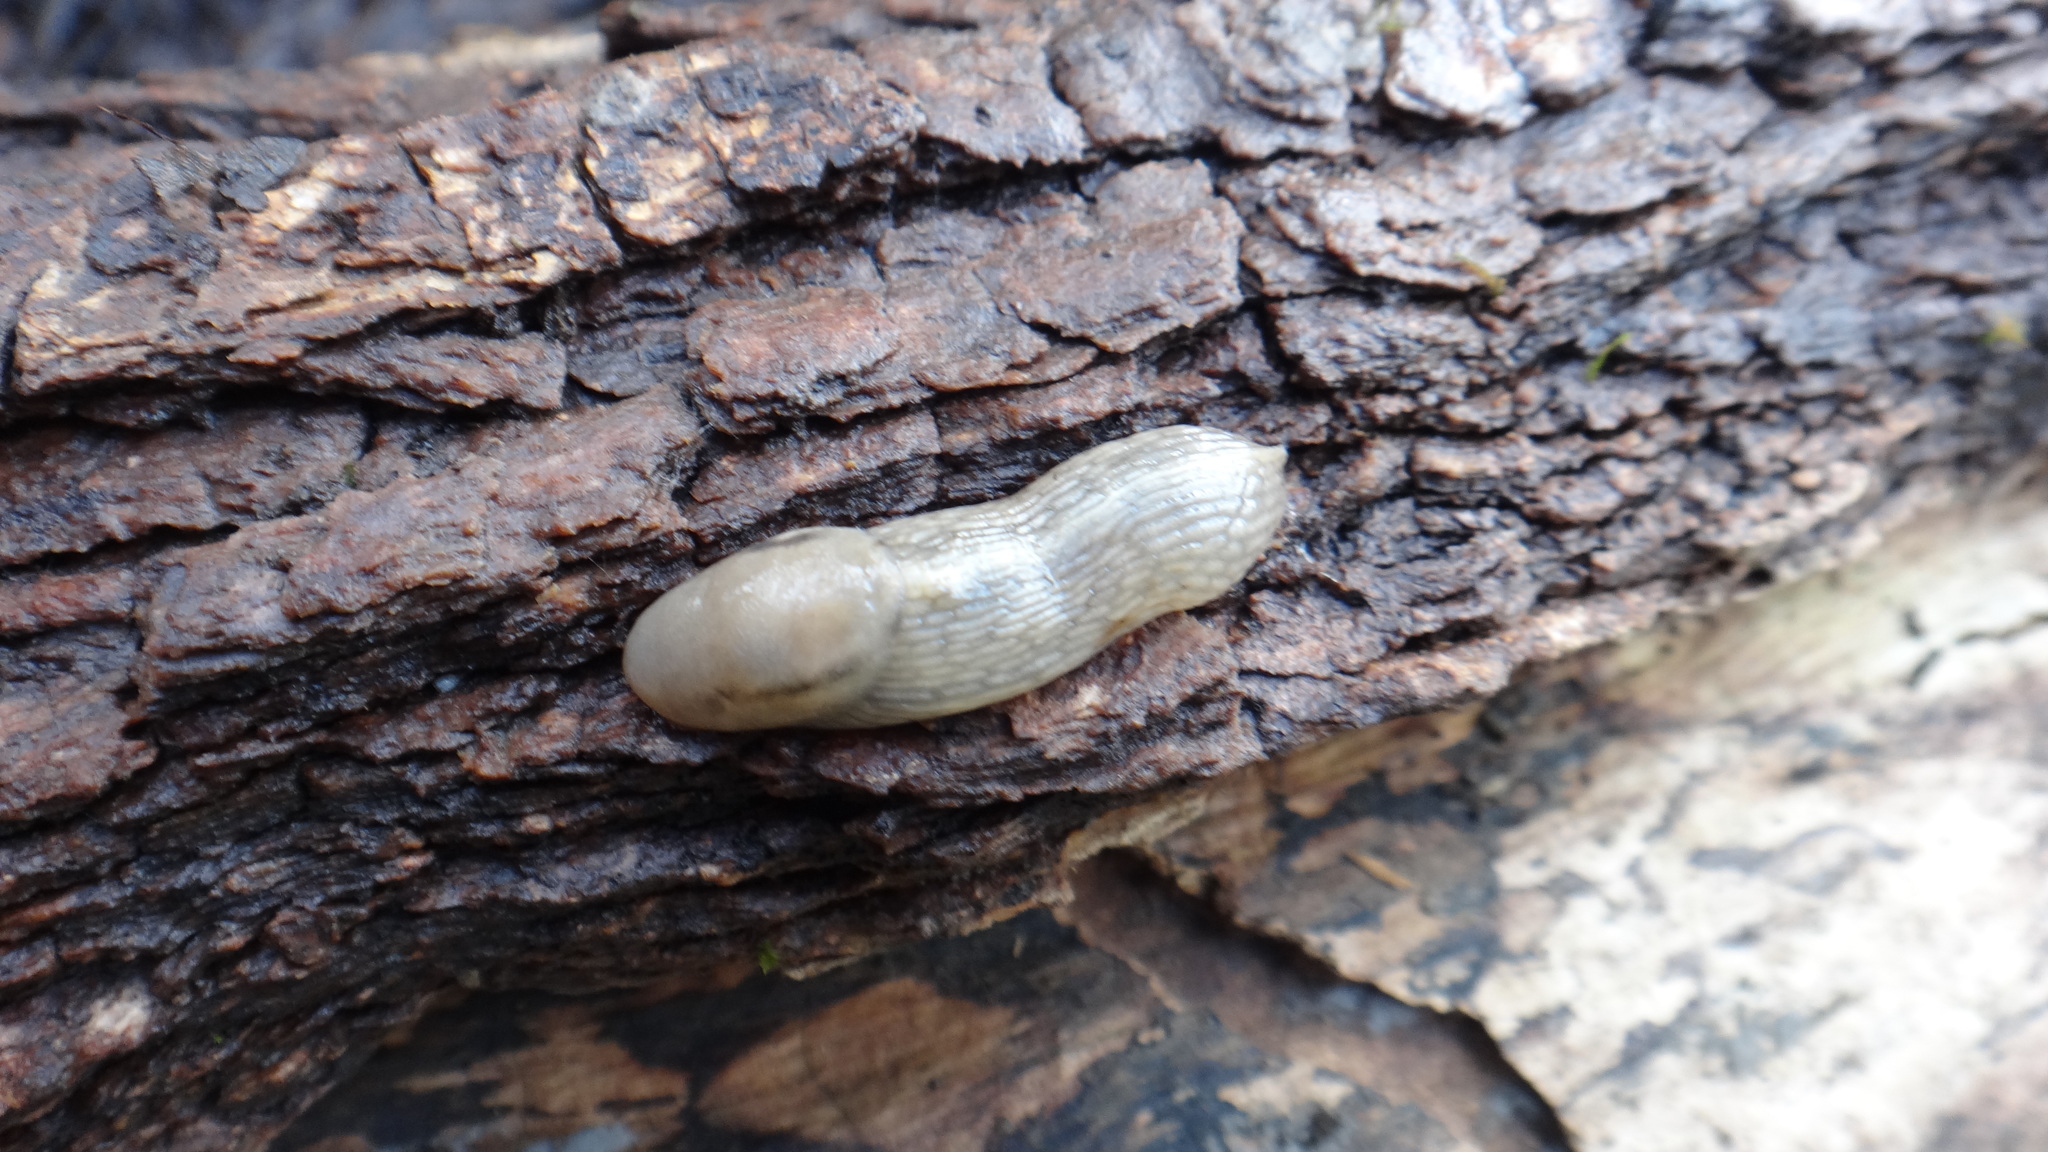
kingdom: Animalia
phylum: Mollusca
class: Gastropoda
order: Stylommatophora
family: Limacidae
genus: Lehmannia
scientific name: Lehmannia marginata
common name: Tree slug
